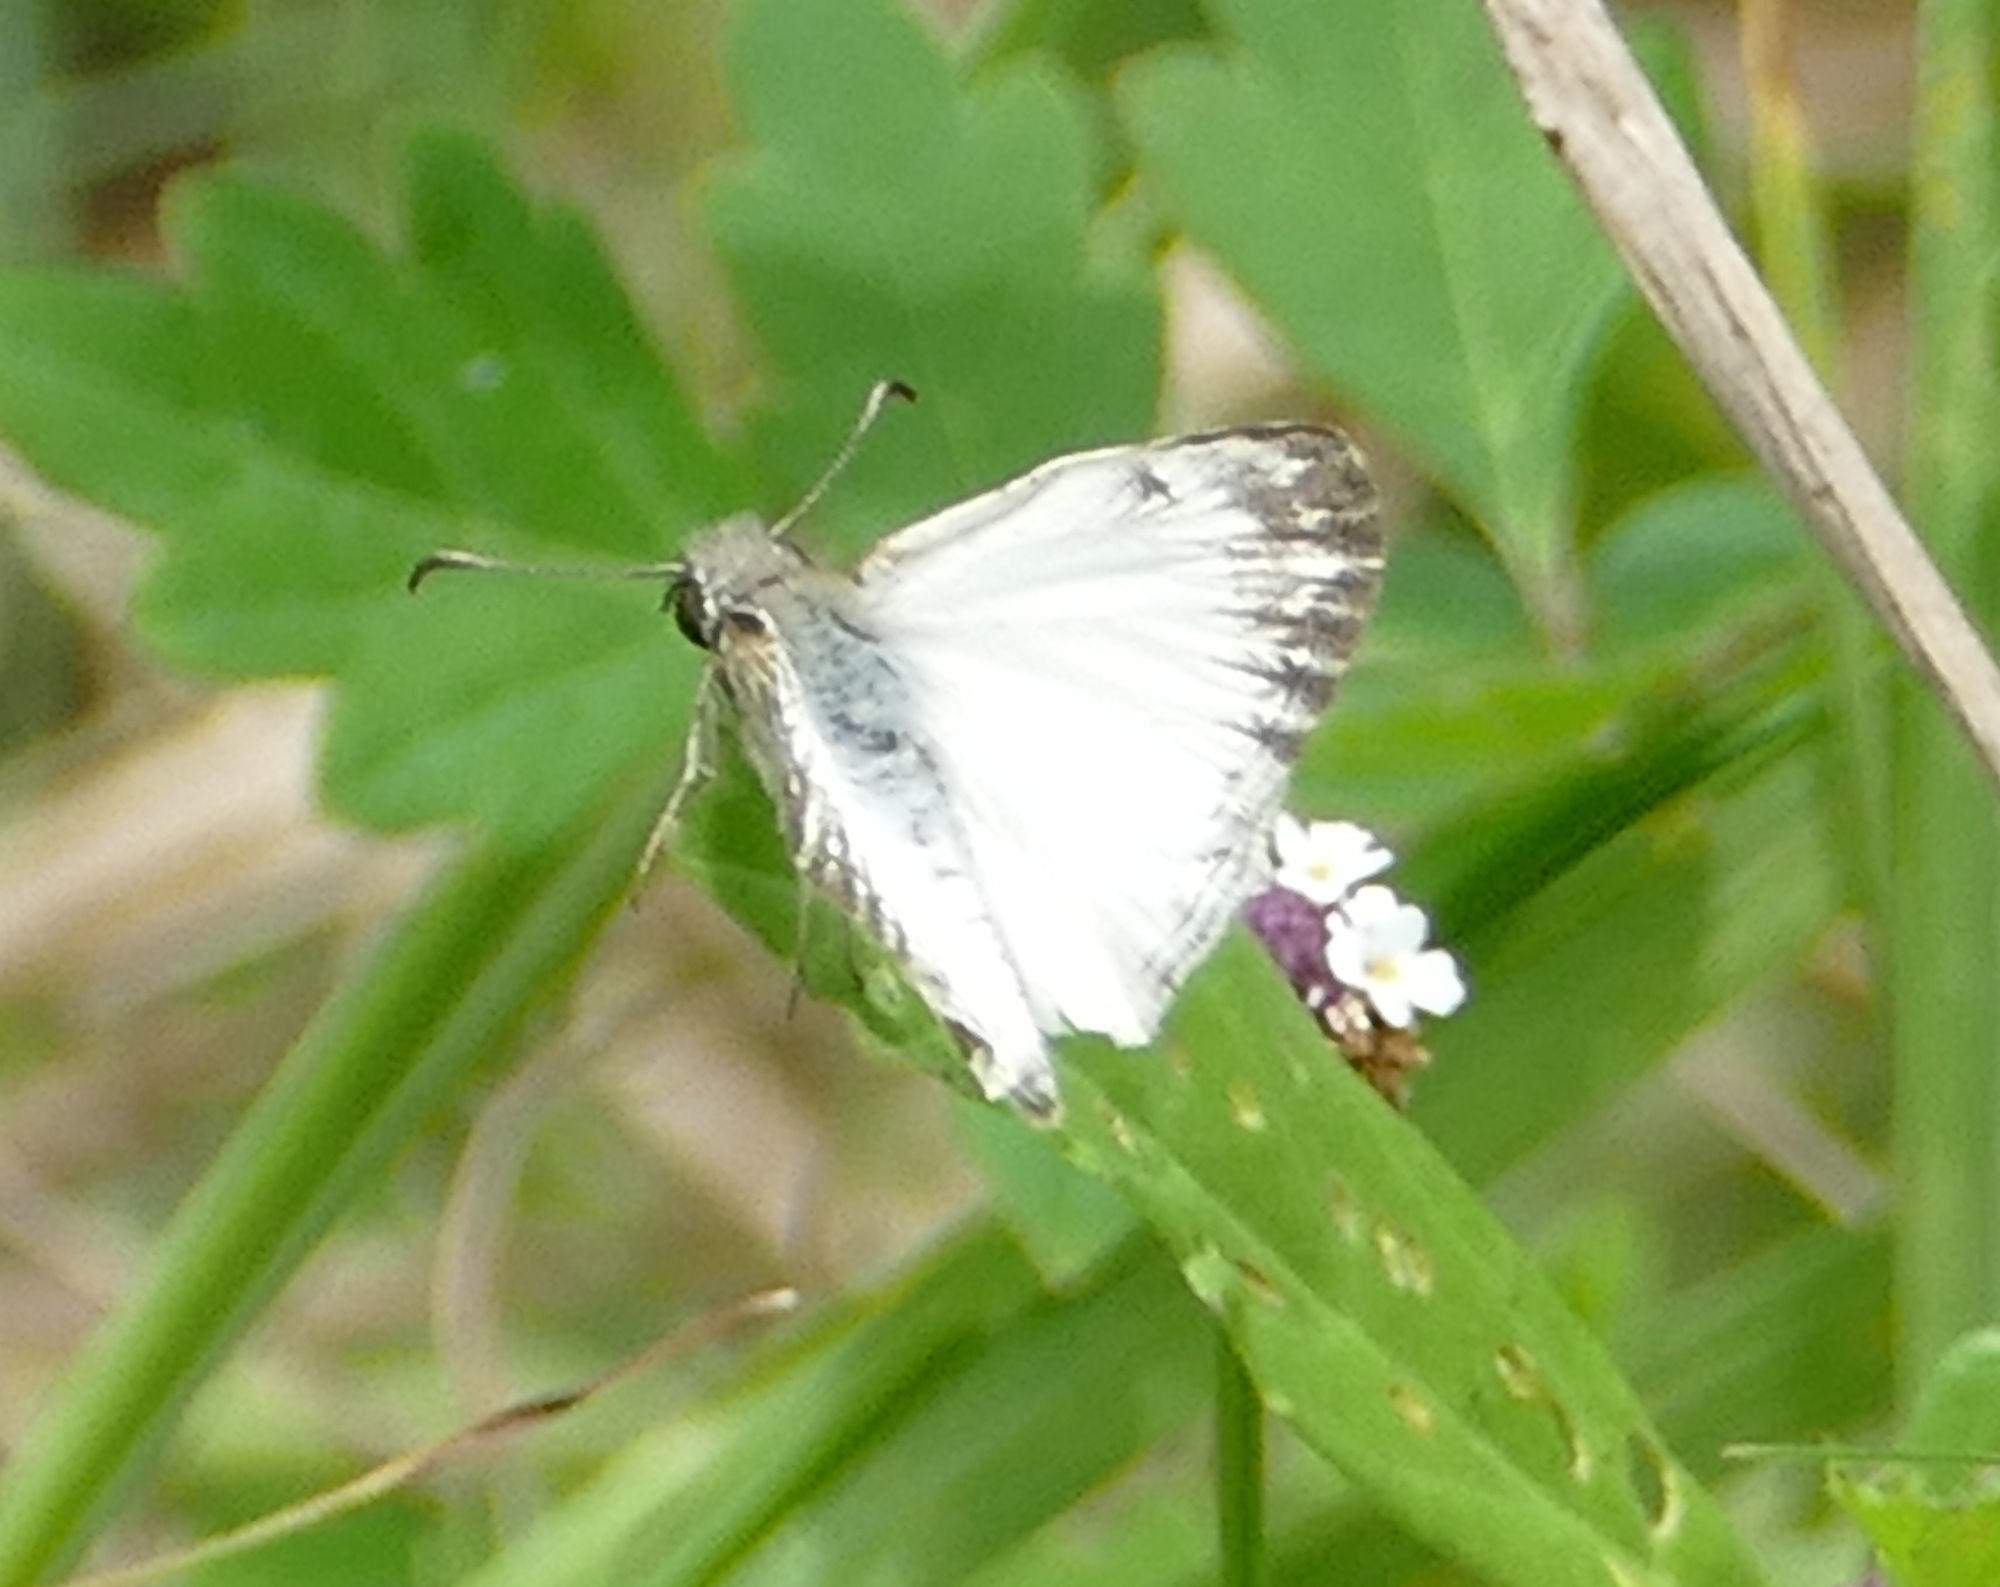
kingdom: Animalia
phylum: Arthropoda
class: Insecta
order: Lepidoptera
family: Hesperiidae
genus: Heliopetes
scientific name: Heliopetes macaira
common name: Turk's-cap white-skipper
